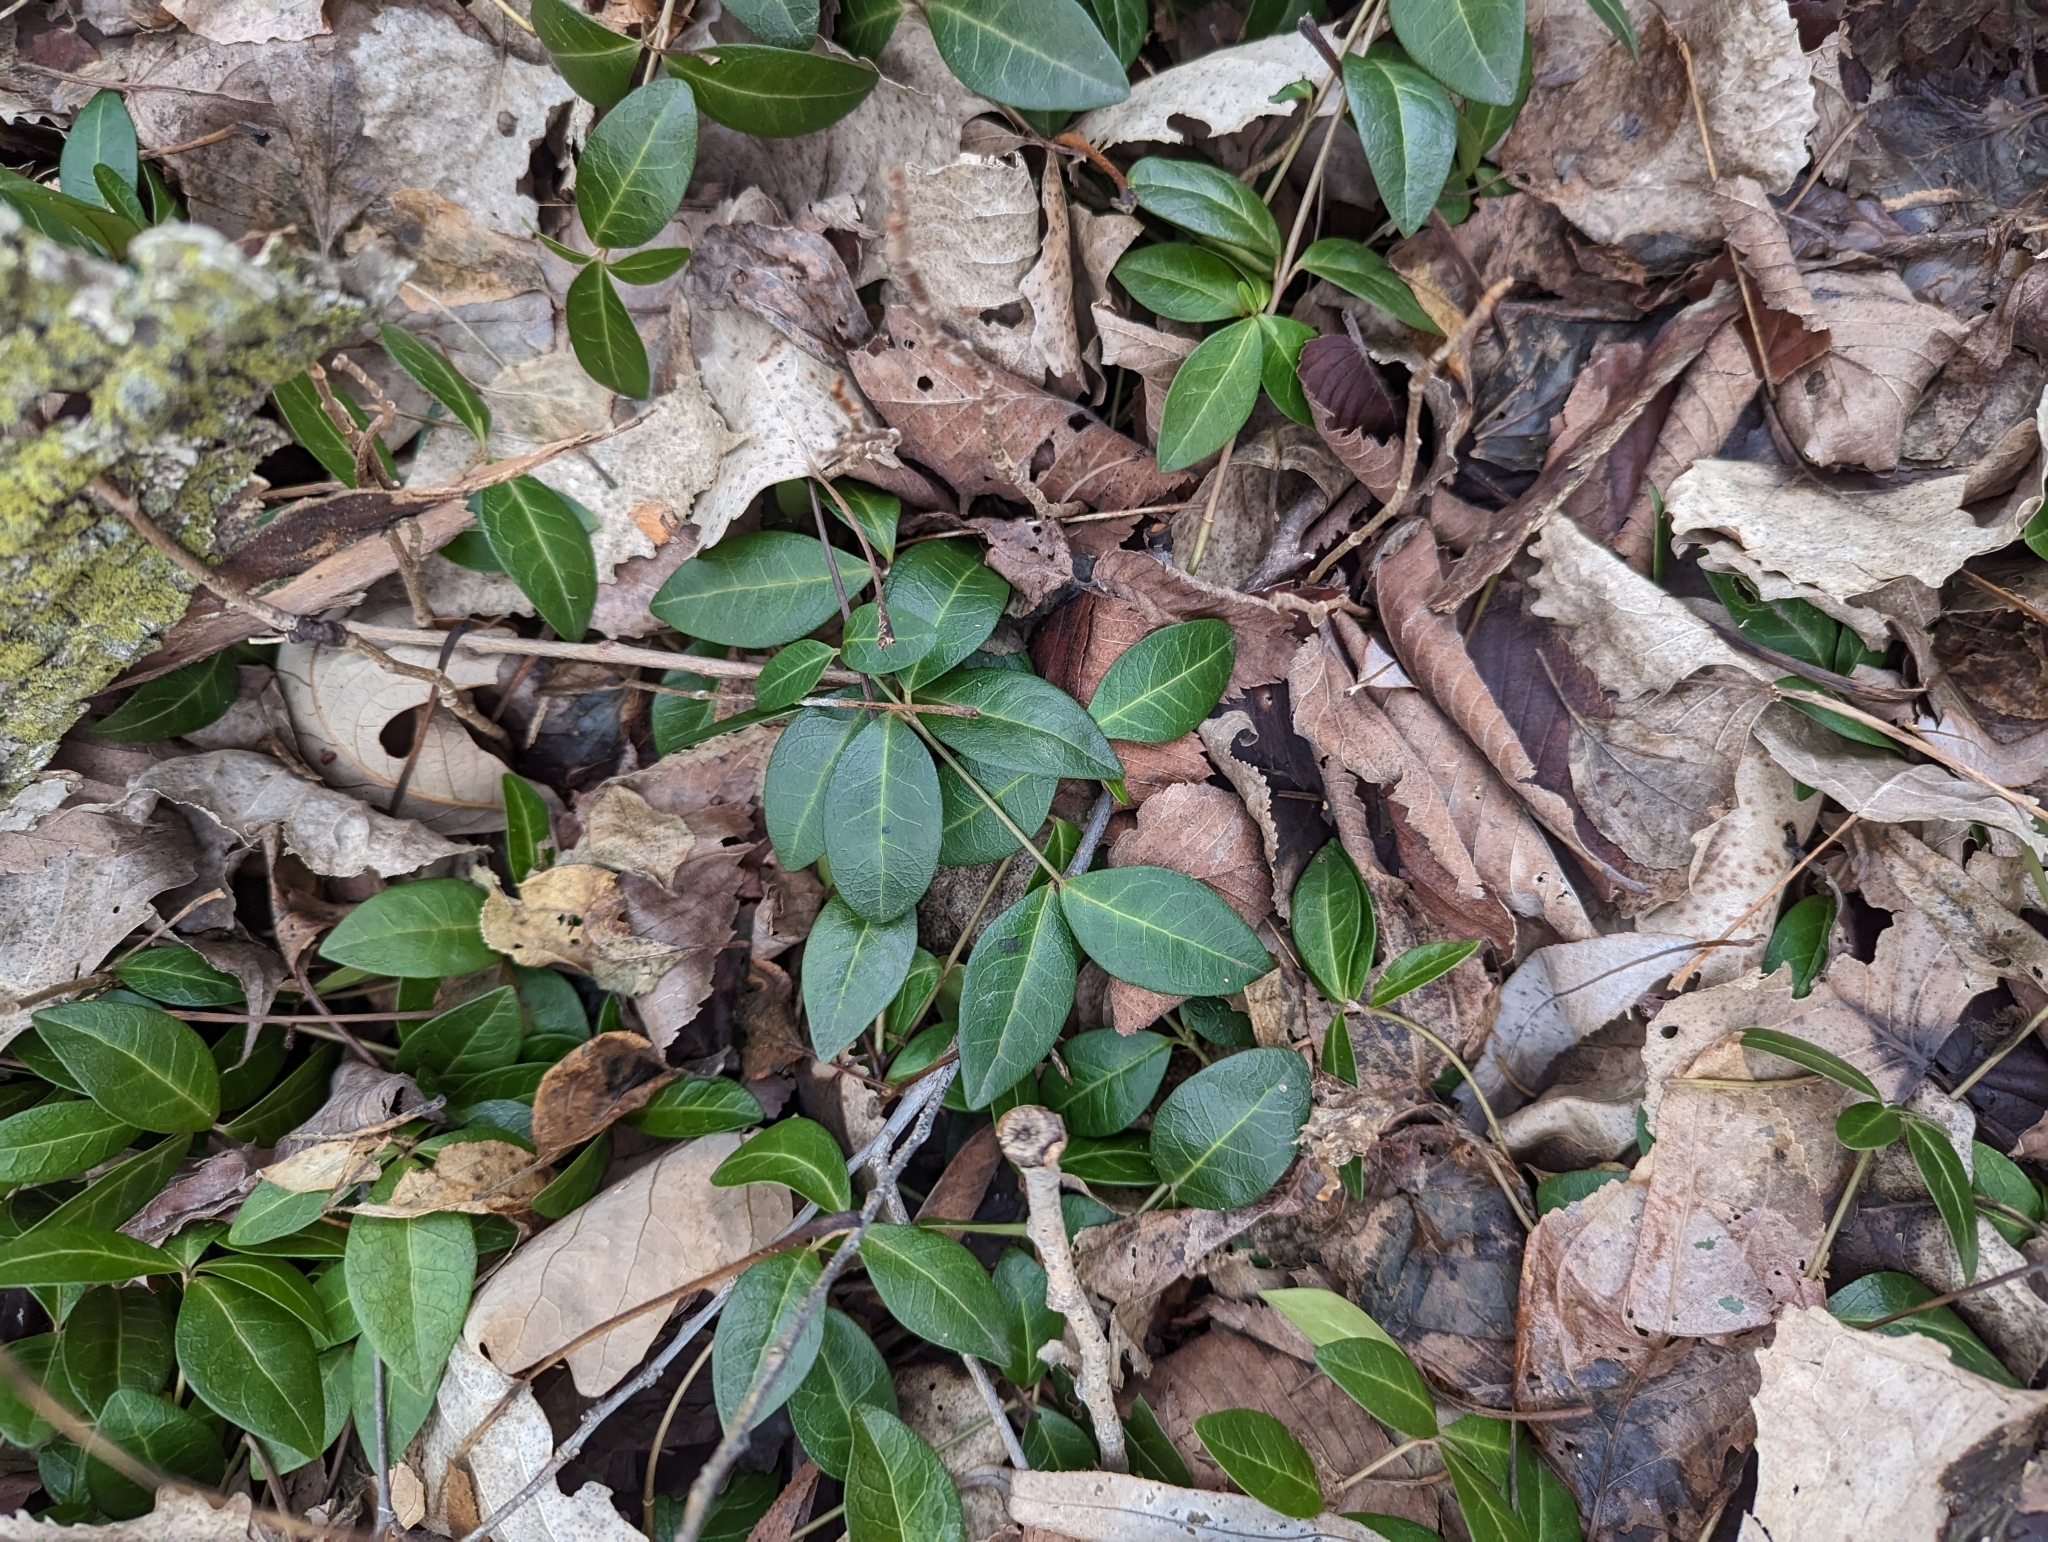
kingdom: Plantae
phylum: Tracheophyta
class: Magnoliopsida
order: Gentianales
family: Apocynaceae
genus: Vinca
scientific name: Vinca minor
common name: Lesser periwinkle
